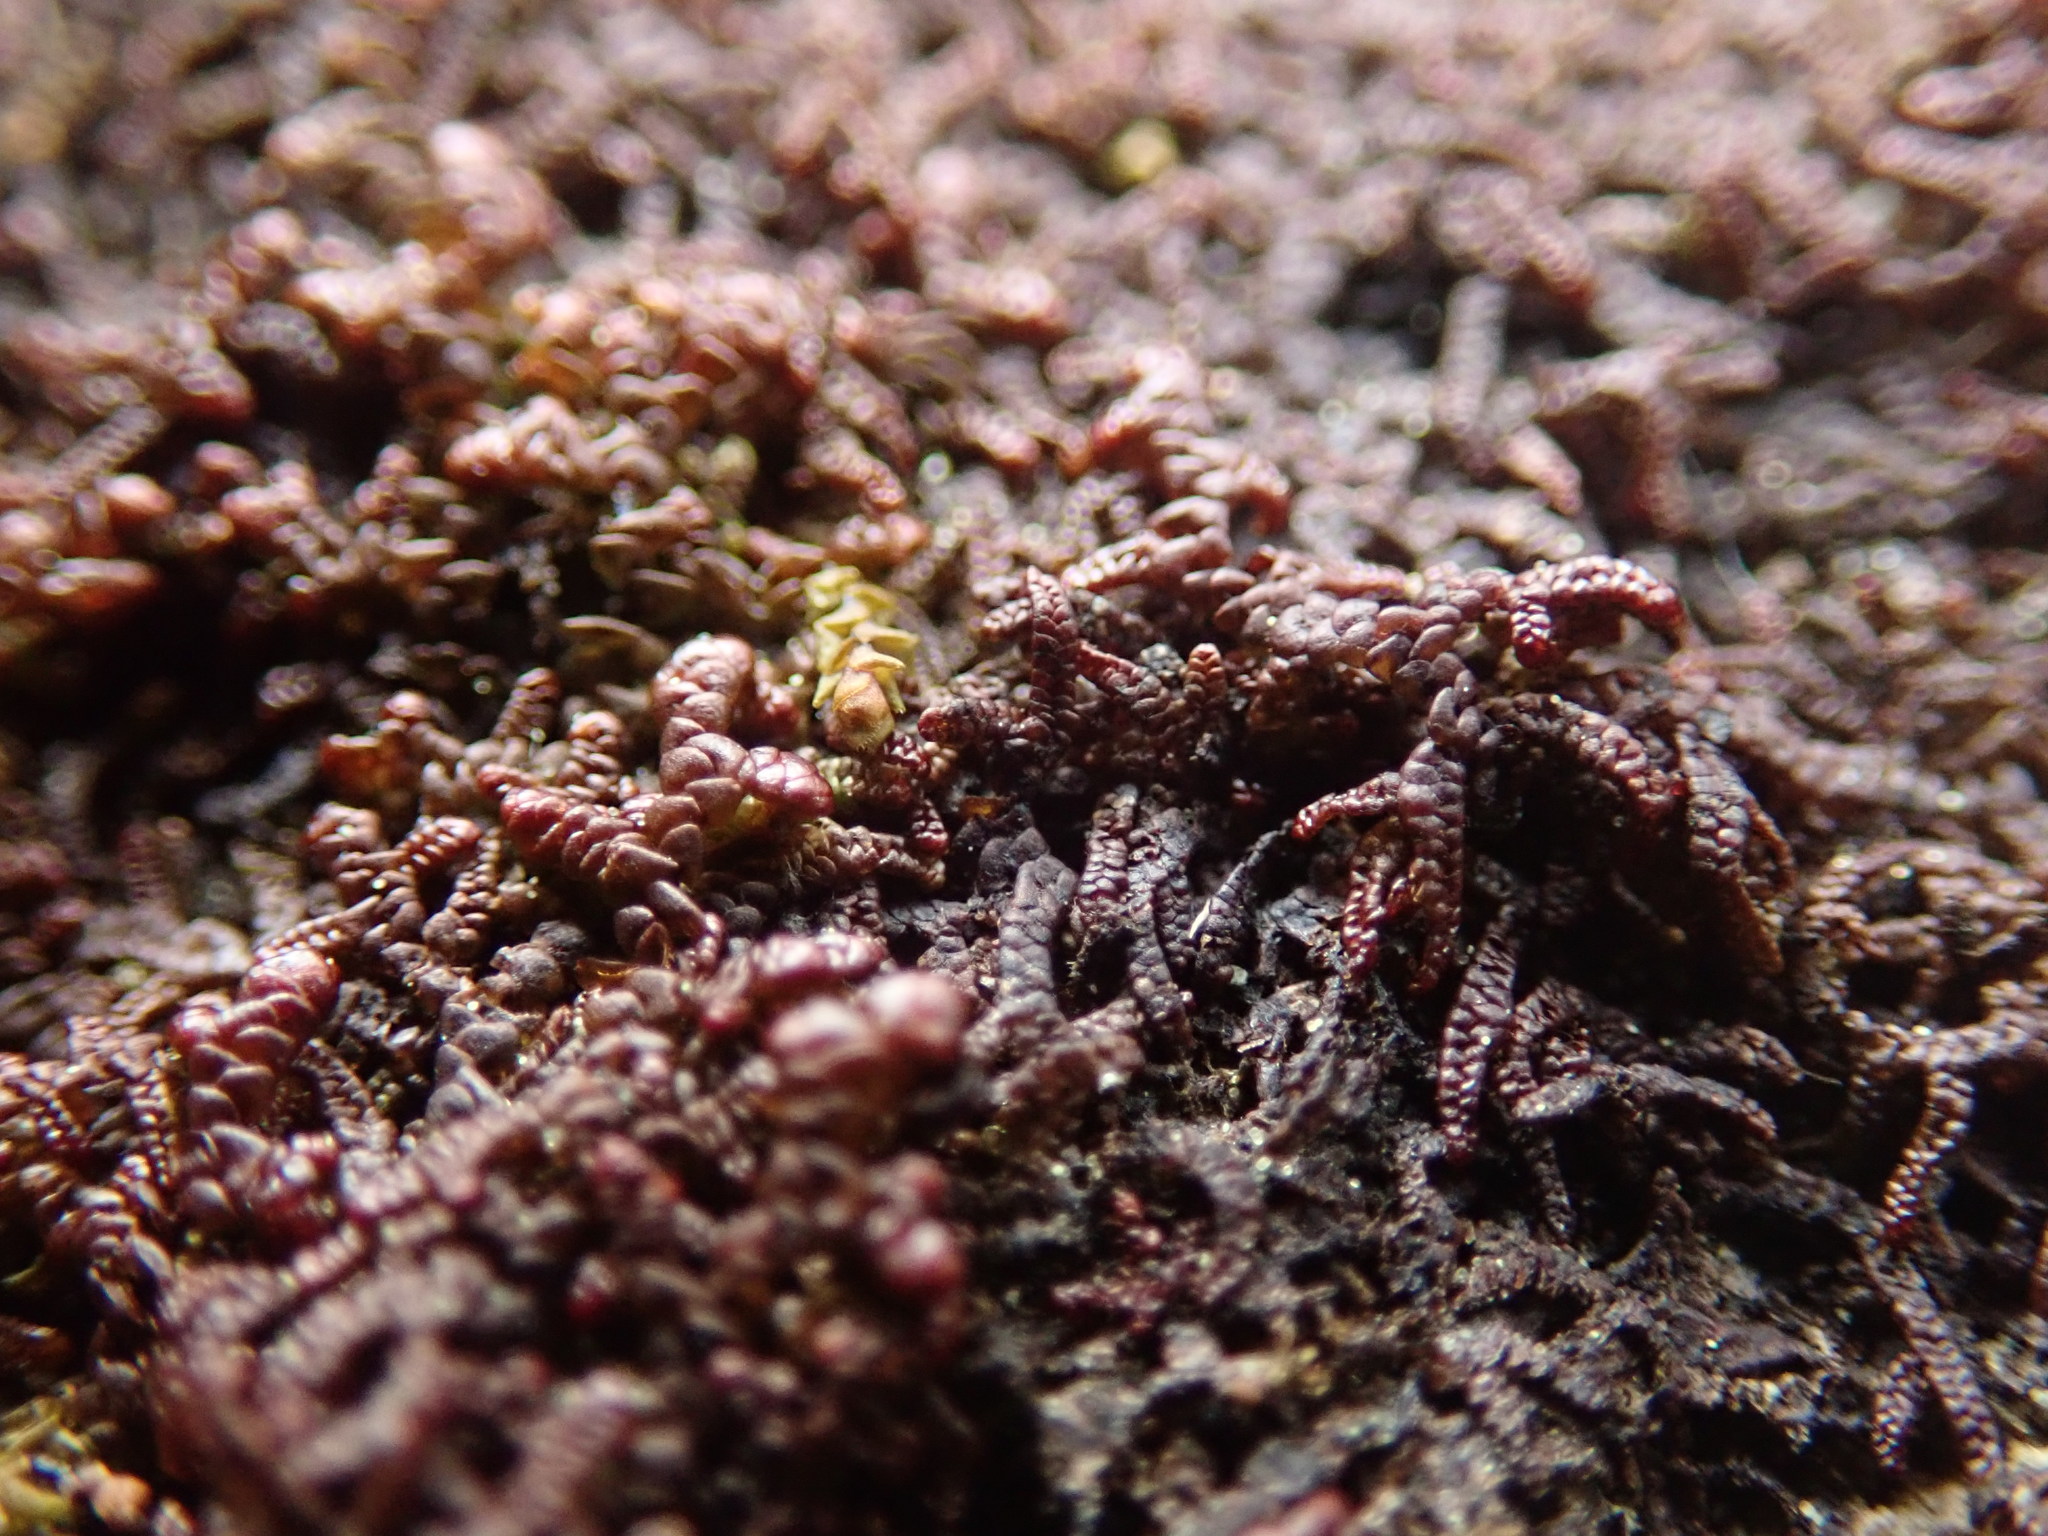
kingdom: Plantae
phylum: Marchantiophyta
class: Jungermanniopsida
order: Porellales
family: Frullaniaceae
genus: Frullania
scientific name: Frullania nisquallensis
